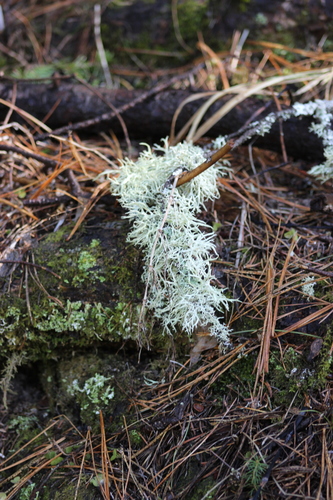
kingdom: Fungi
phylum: Ascomycota
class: Lecanoromycetes
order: Lecanorales
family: Parmeliaceae
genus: Evernia
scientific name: Evernia
